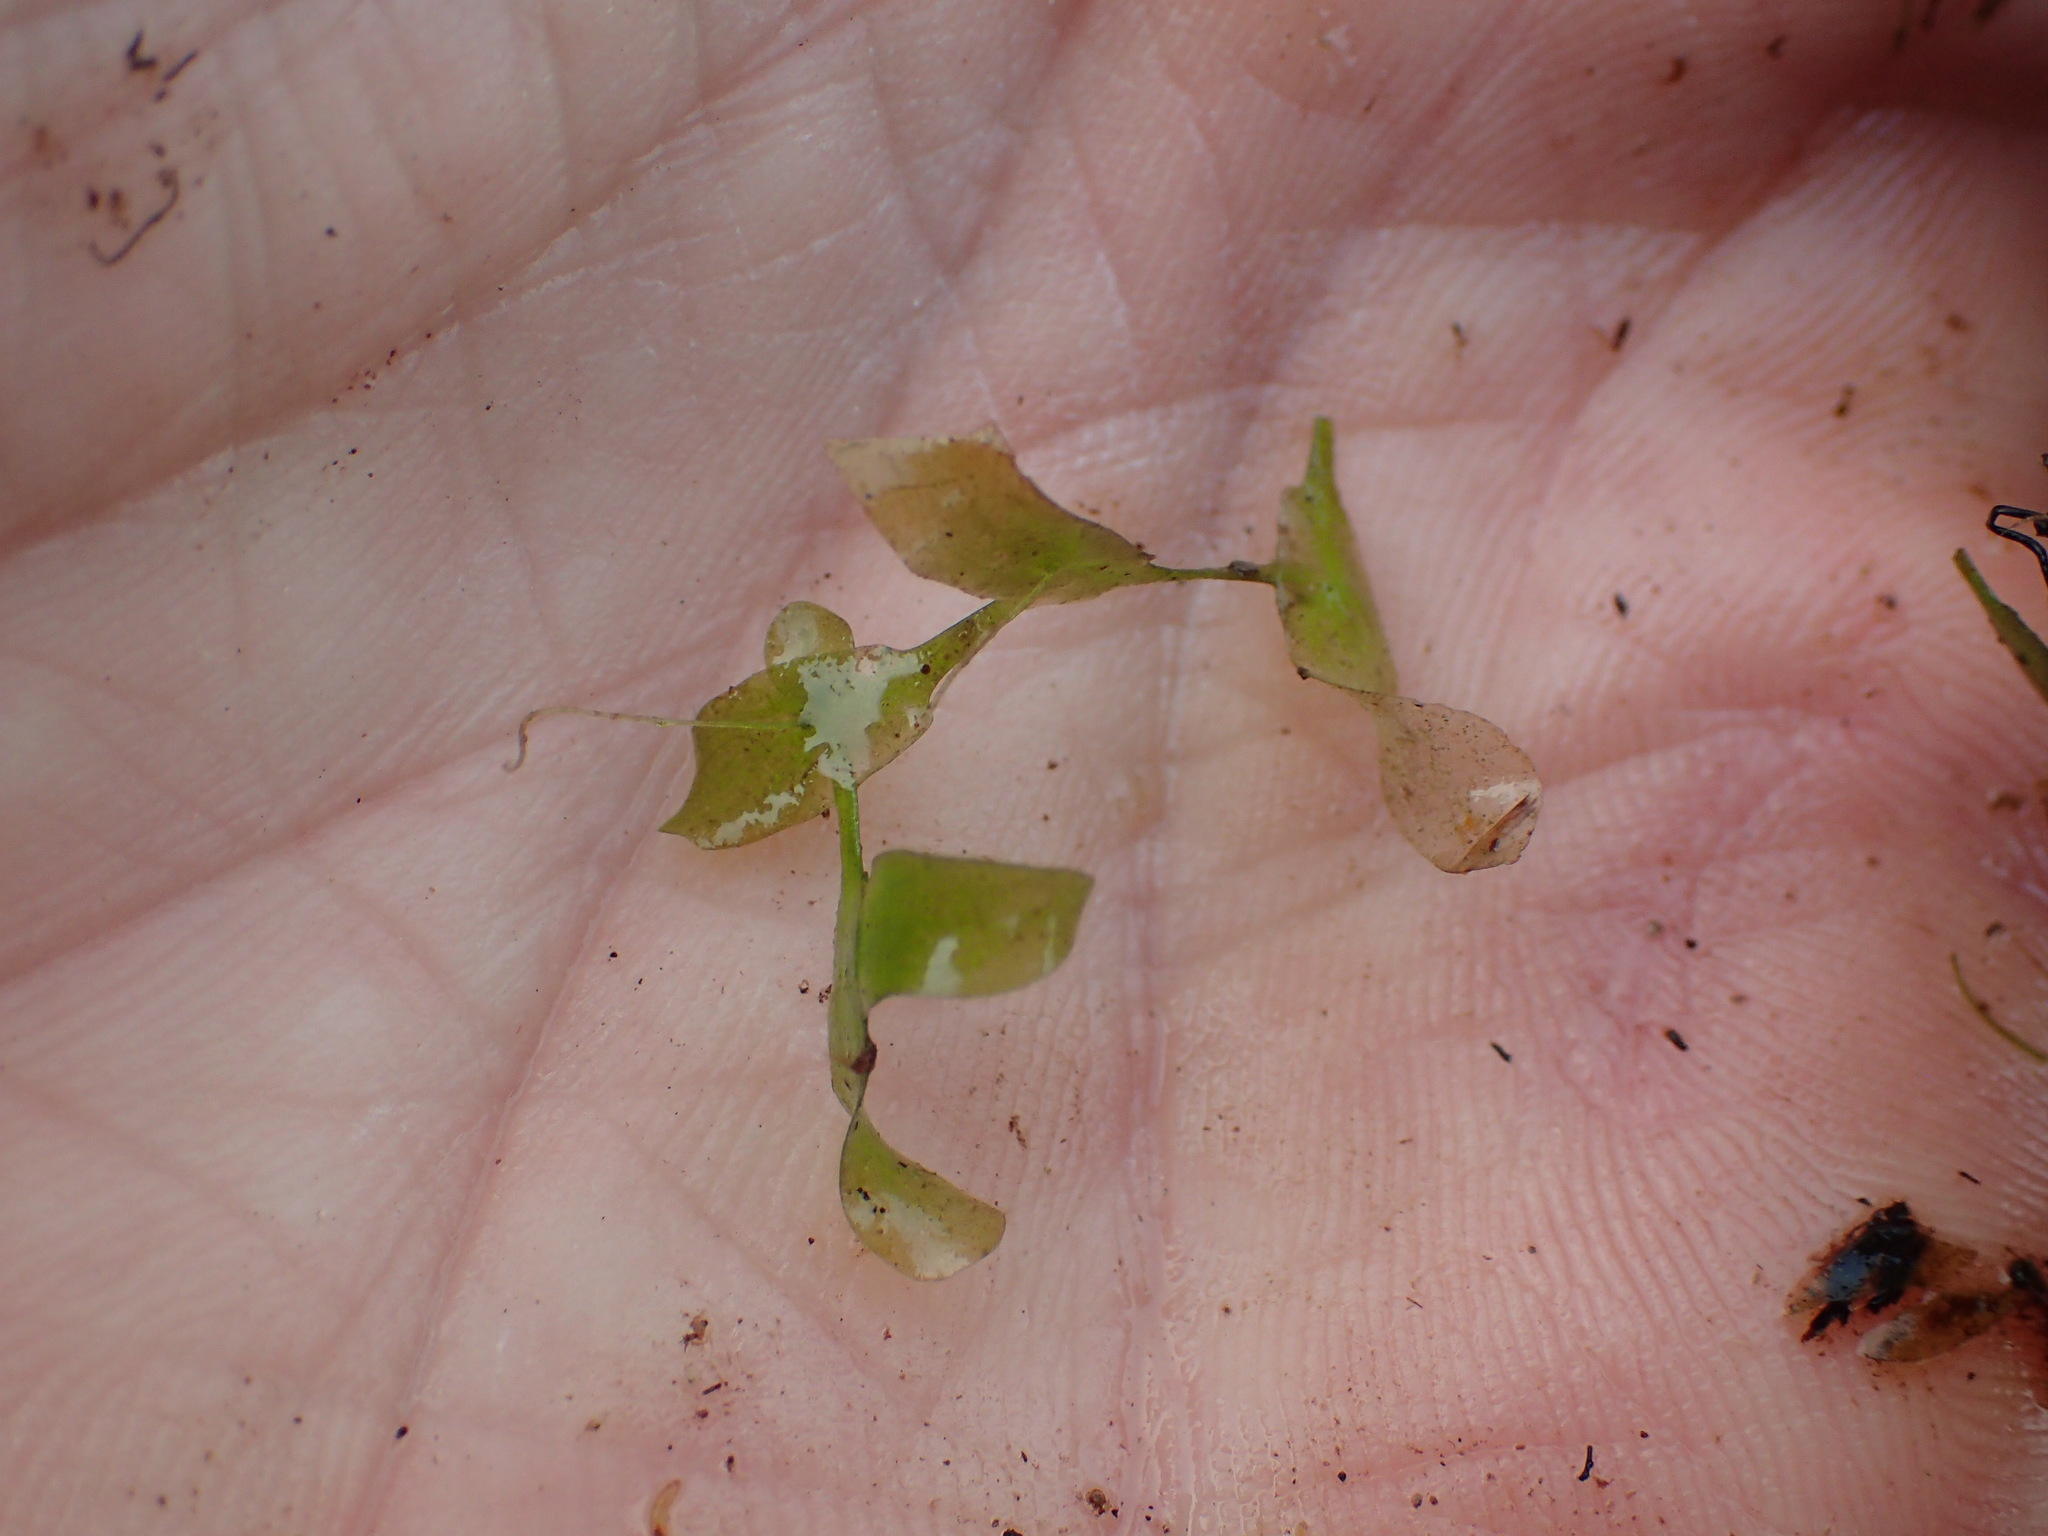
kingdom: Plantae
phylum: Tracheophyta
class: Liliopsida
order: Alismatales
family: Araceae
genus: Lemna
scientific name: Lemna trisulca
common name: Ivy-leaved duckweed
